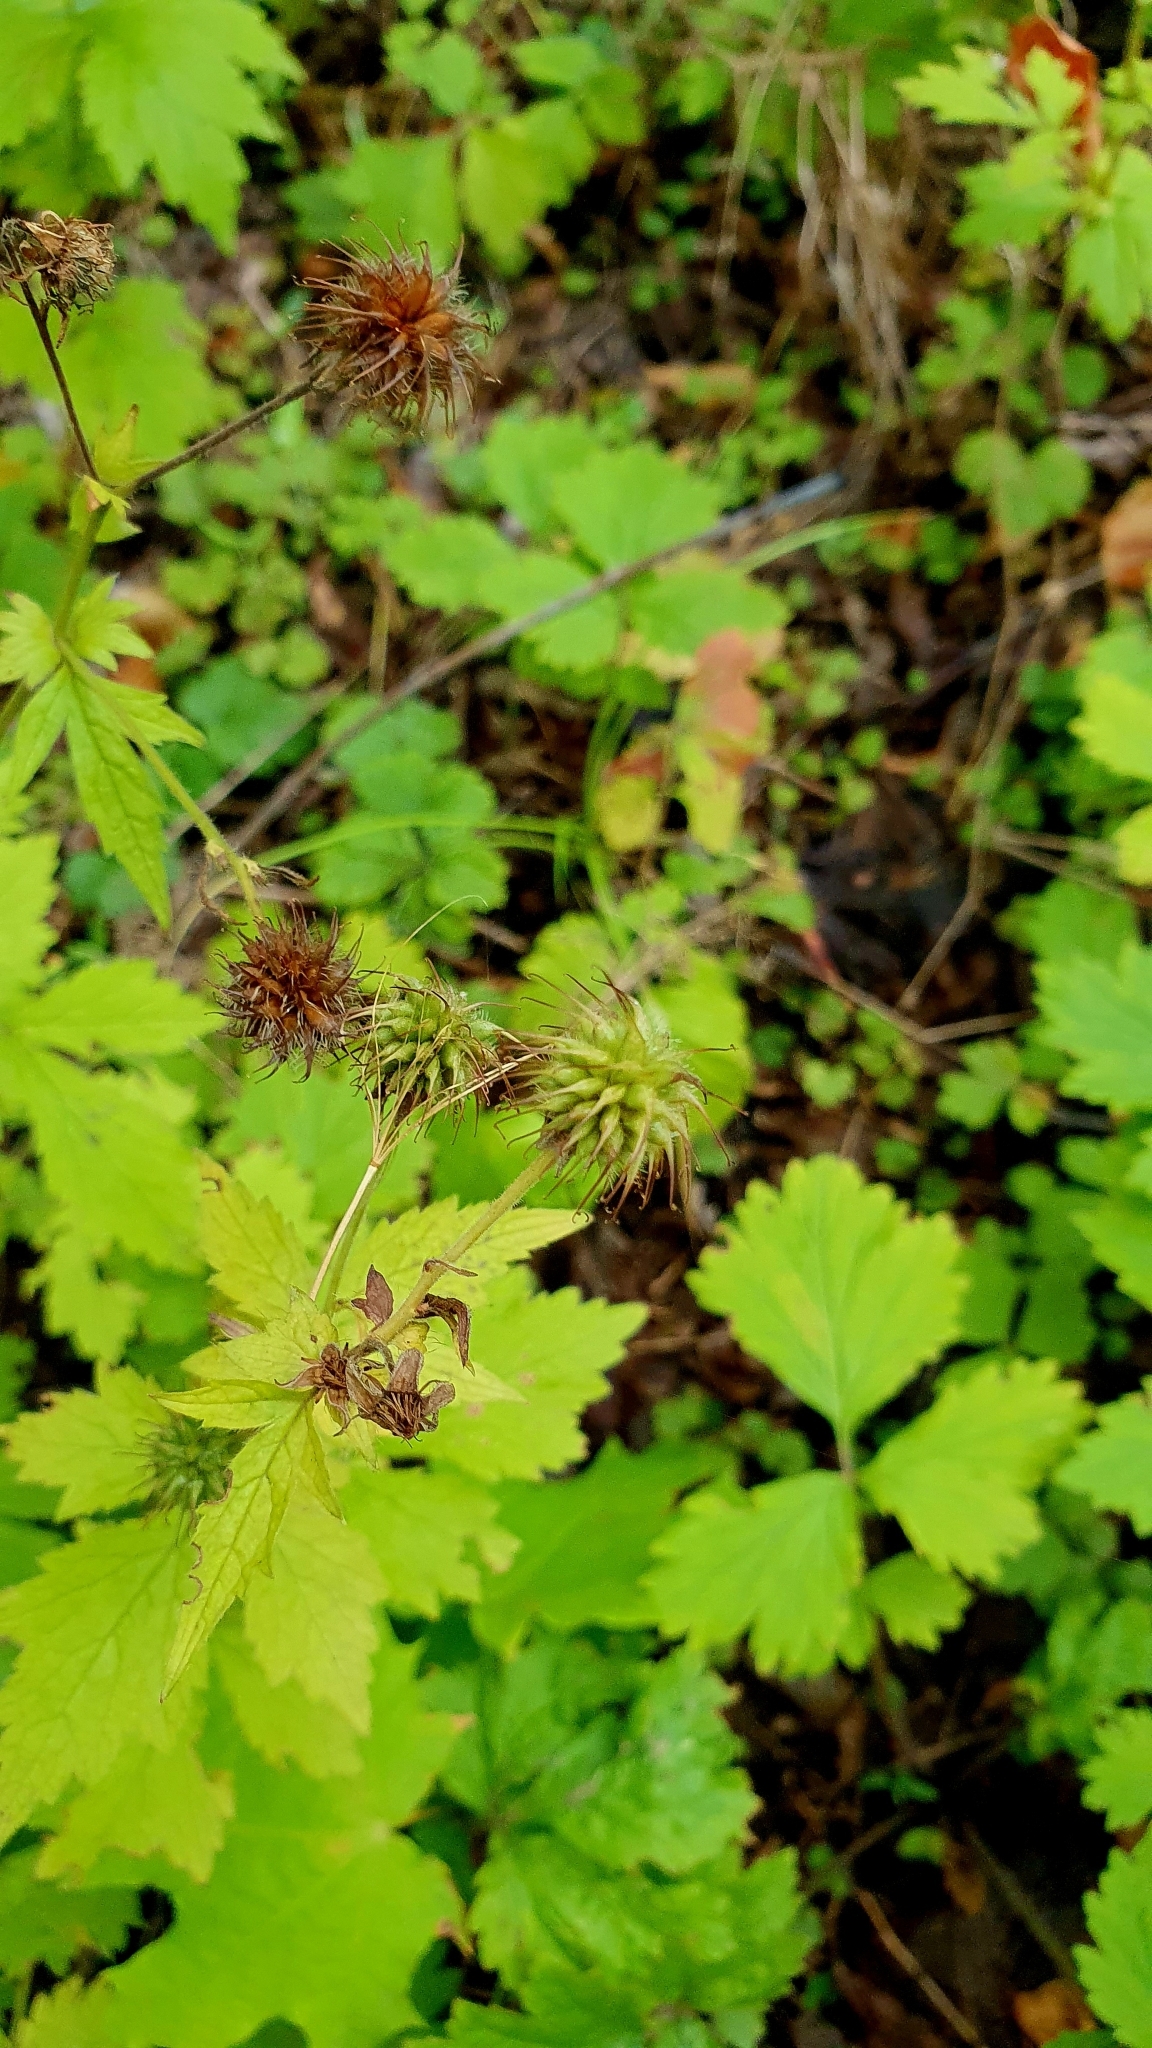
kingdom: Plantae
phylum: Tracheophyta
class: Magnoliopsida
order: Rosales
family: Rosaceae
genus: Geum
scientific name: Geum urbanum
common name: Wood avens
